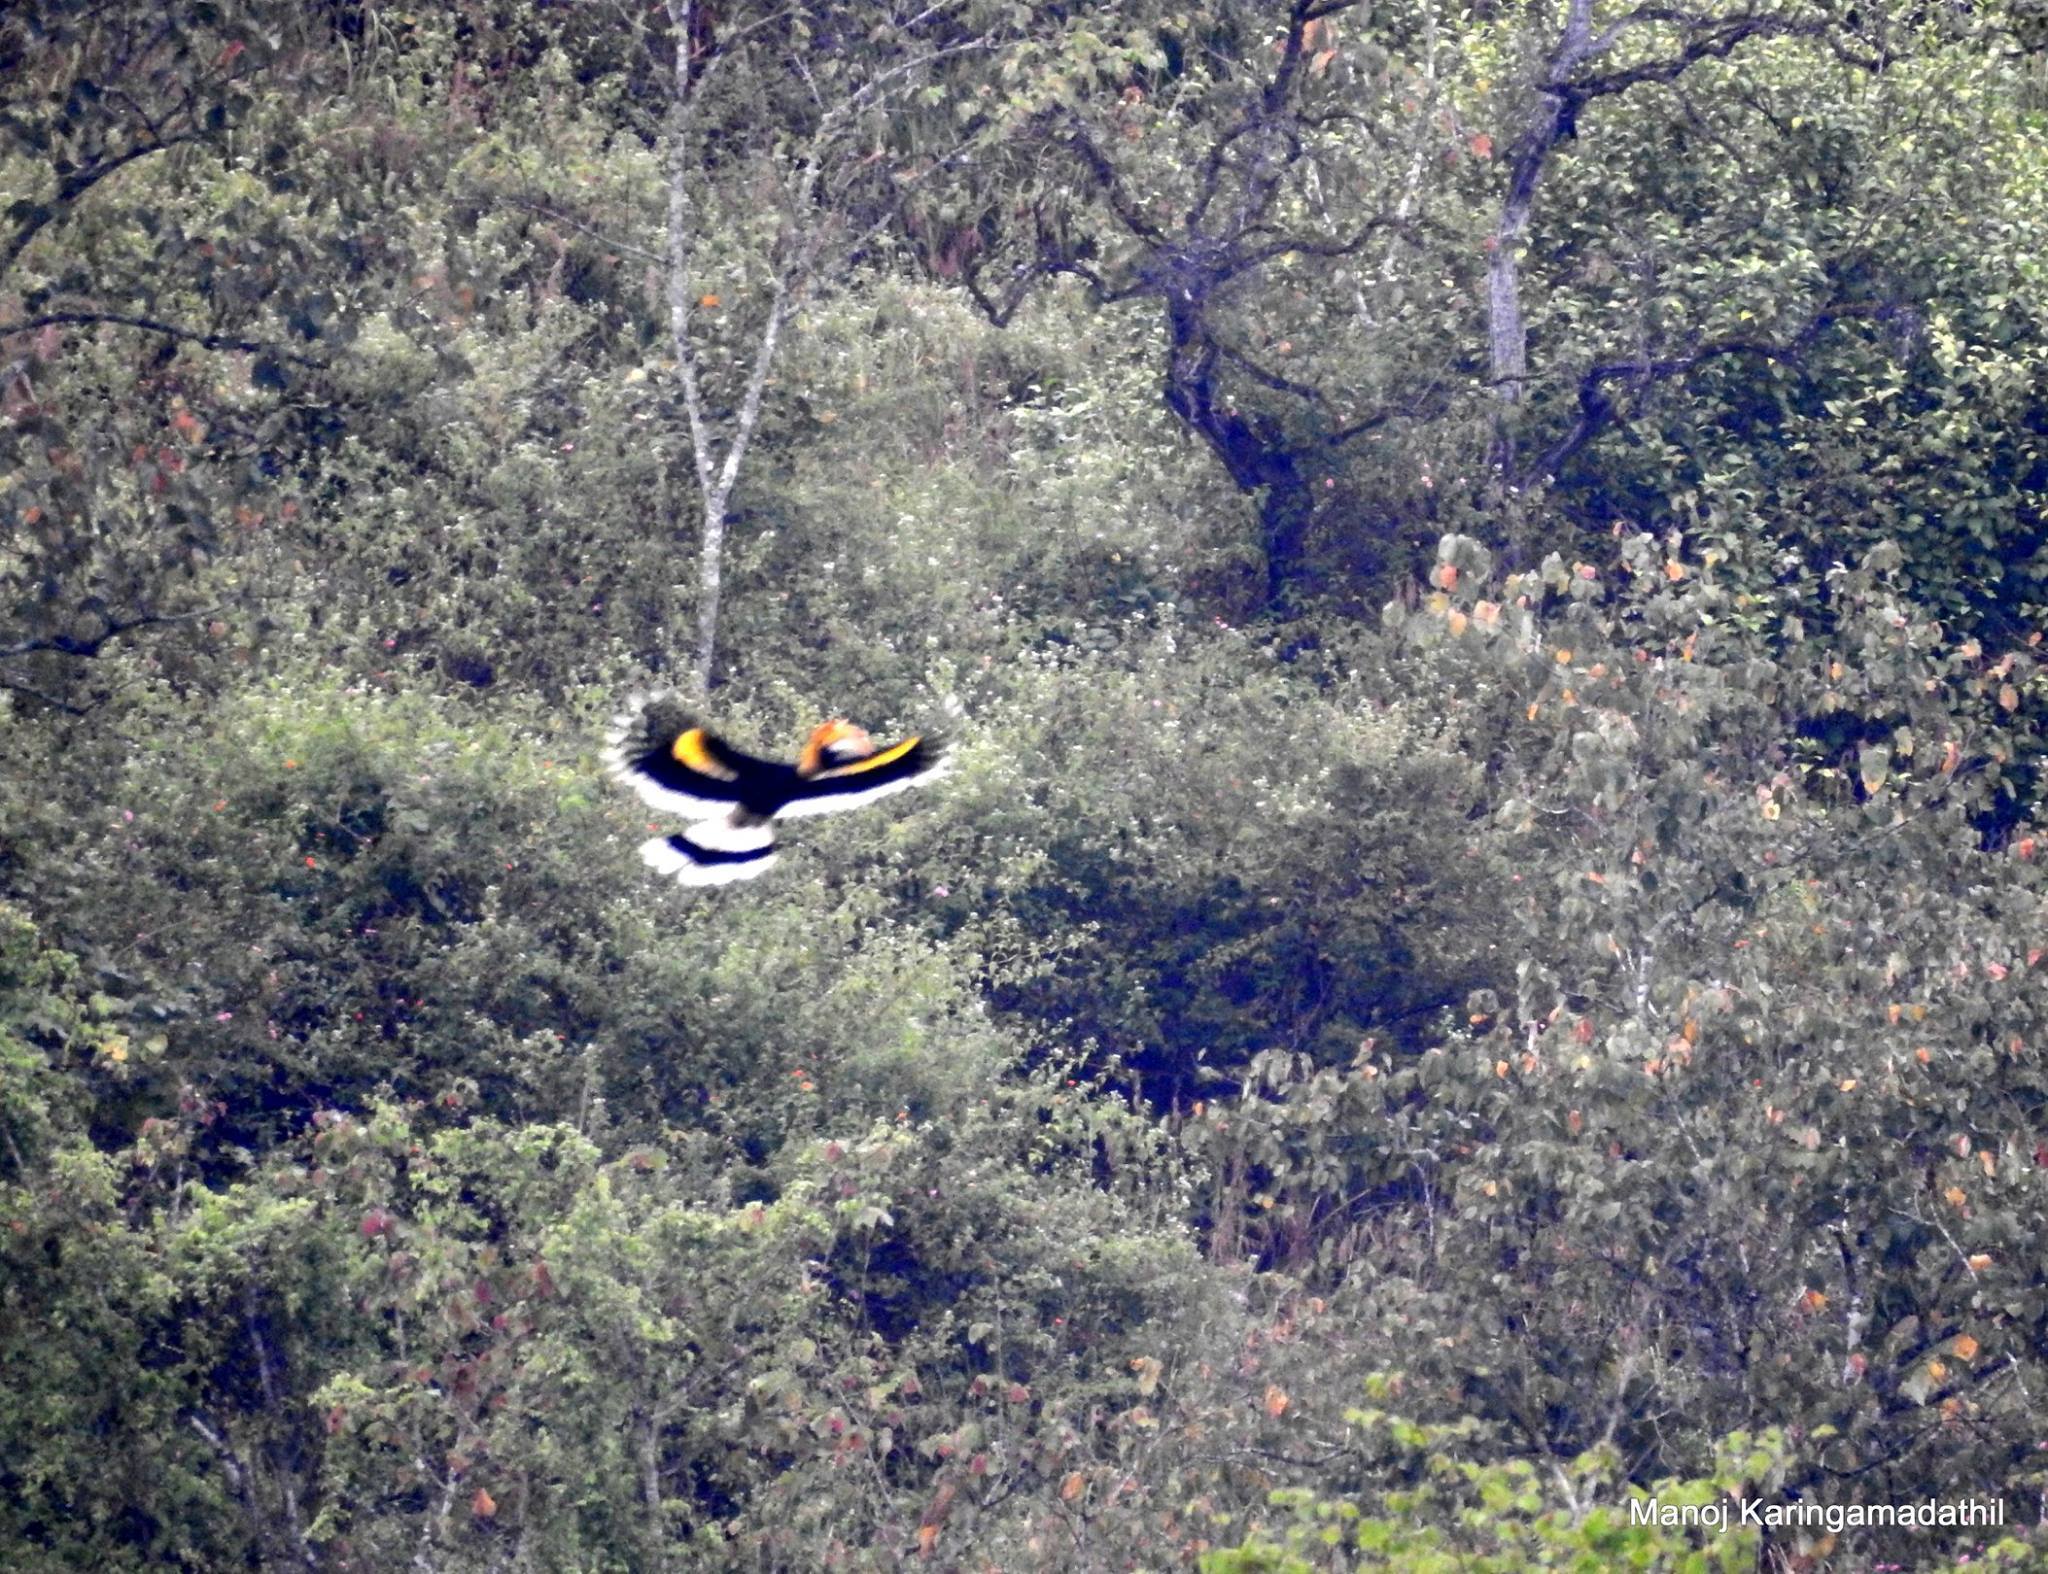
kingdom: Animalia
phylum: Chordata
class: Aves
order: Bucerotiformes
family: Bucerotidae
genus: Buceros
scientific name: Buceros bicornis
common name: Great hornbill
